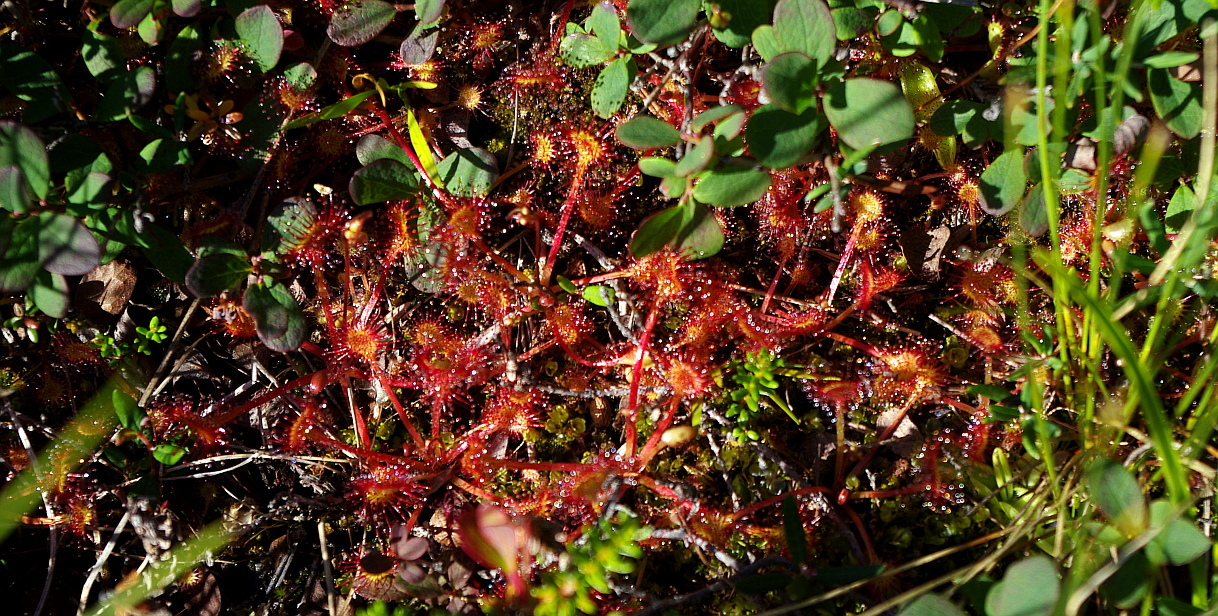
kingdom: Plantae
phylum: Tracheophyta
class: Magnoliopsida
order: Caryophyllales
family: Droseraceae
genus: Drosera
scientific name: Drosera rotundifolia
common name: Round-leaved sundew
